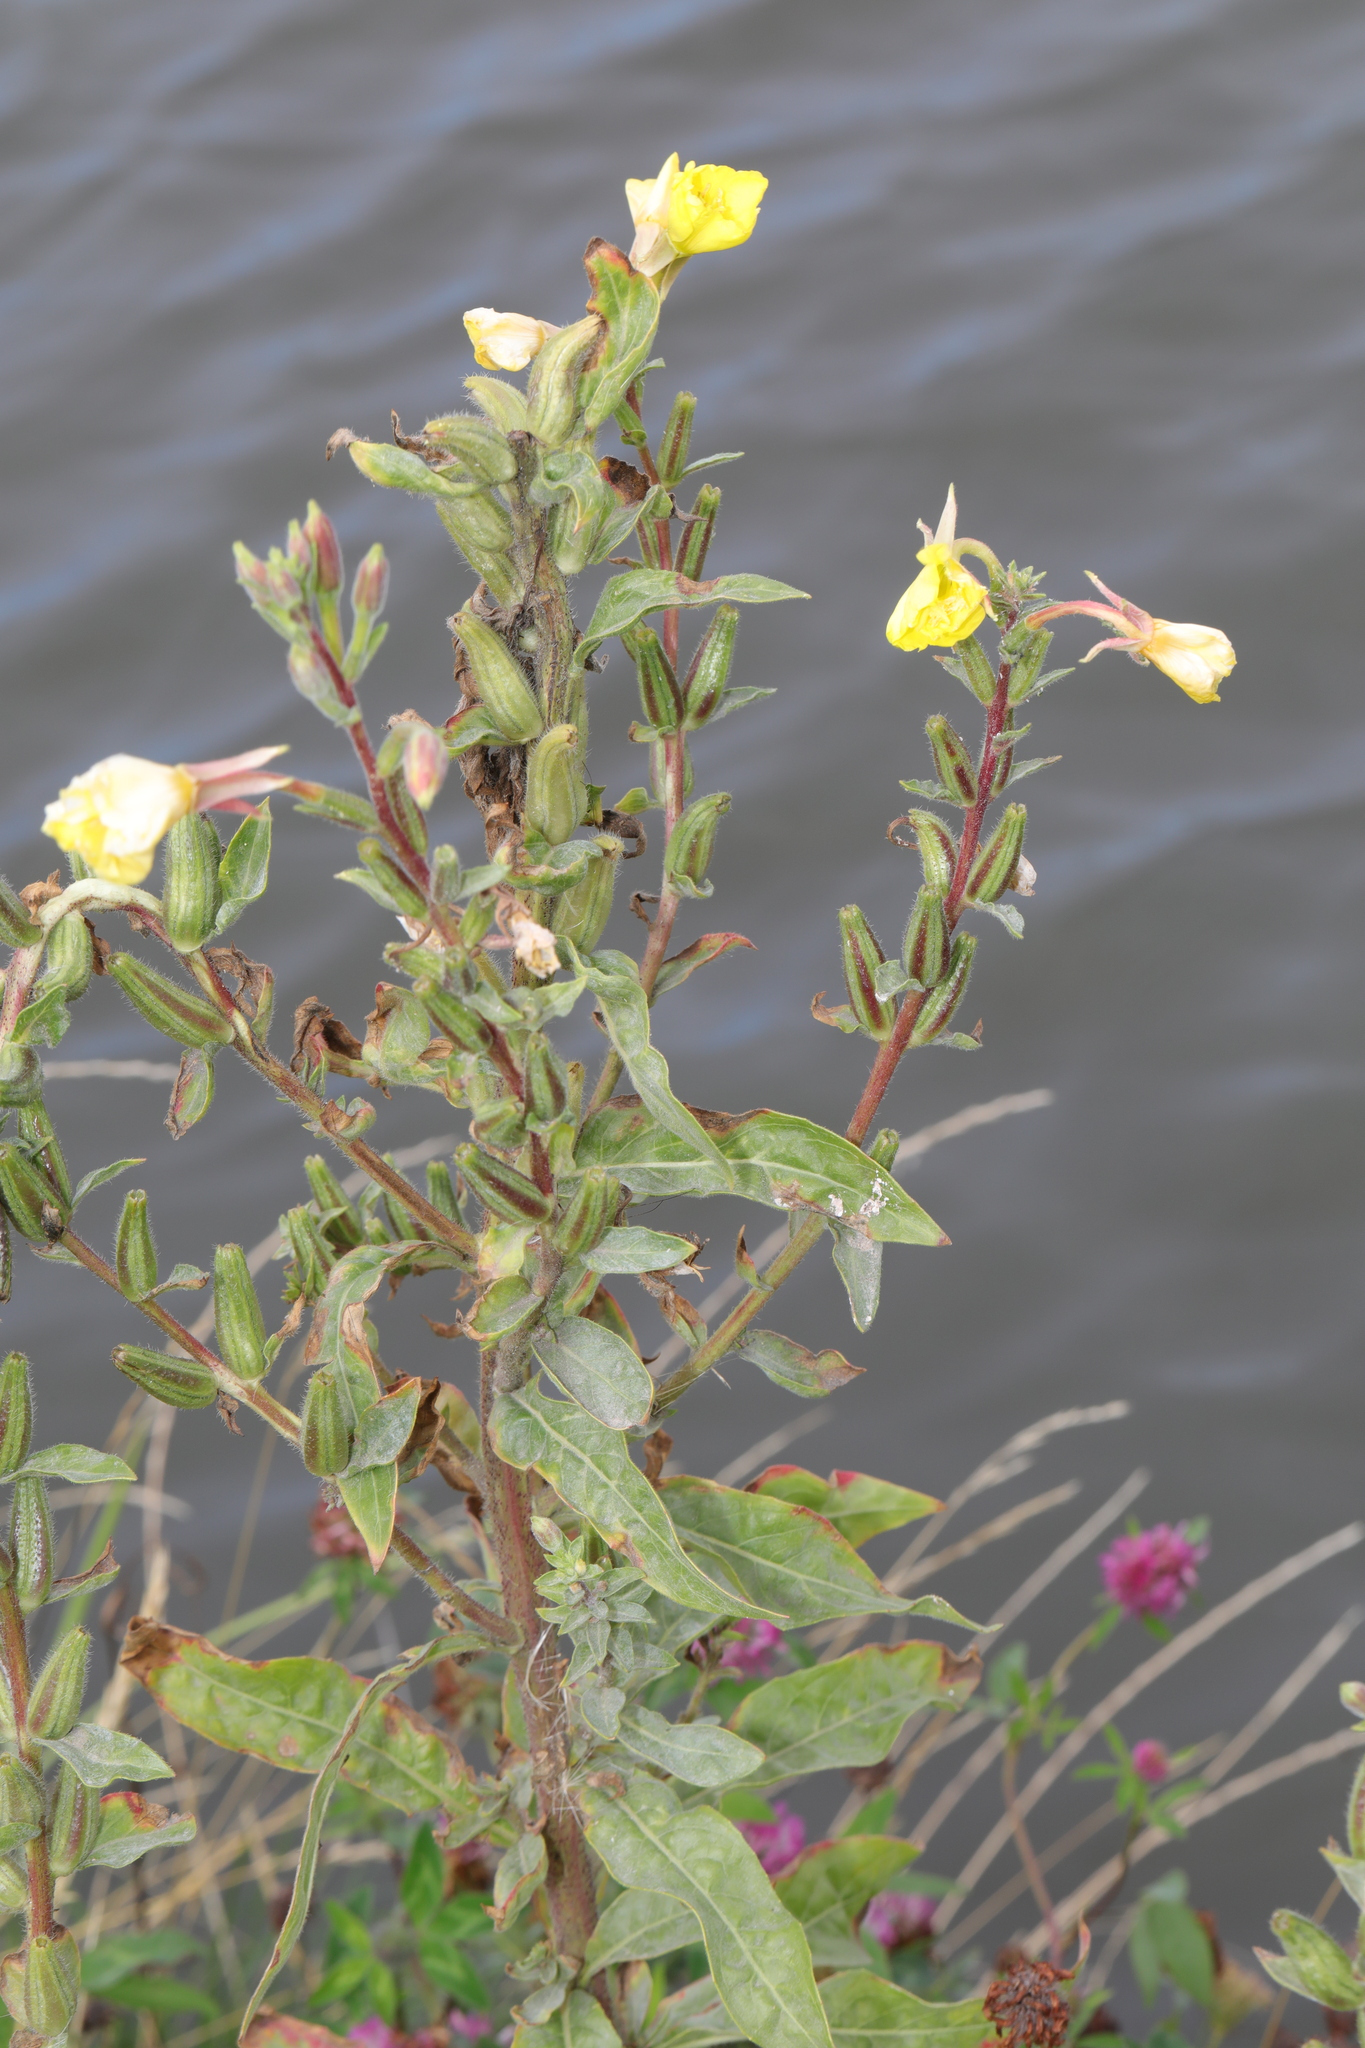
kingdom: Plantae
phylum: Tracheophyta
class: Magnoliopsida
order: Myrtales
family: Onagraceae
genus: Oenothera
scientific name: Oenothera fallax
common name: Intermediate evening-primrose
